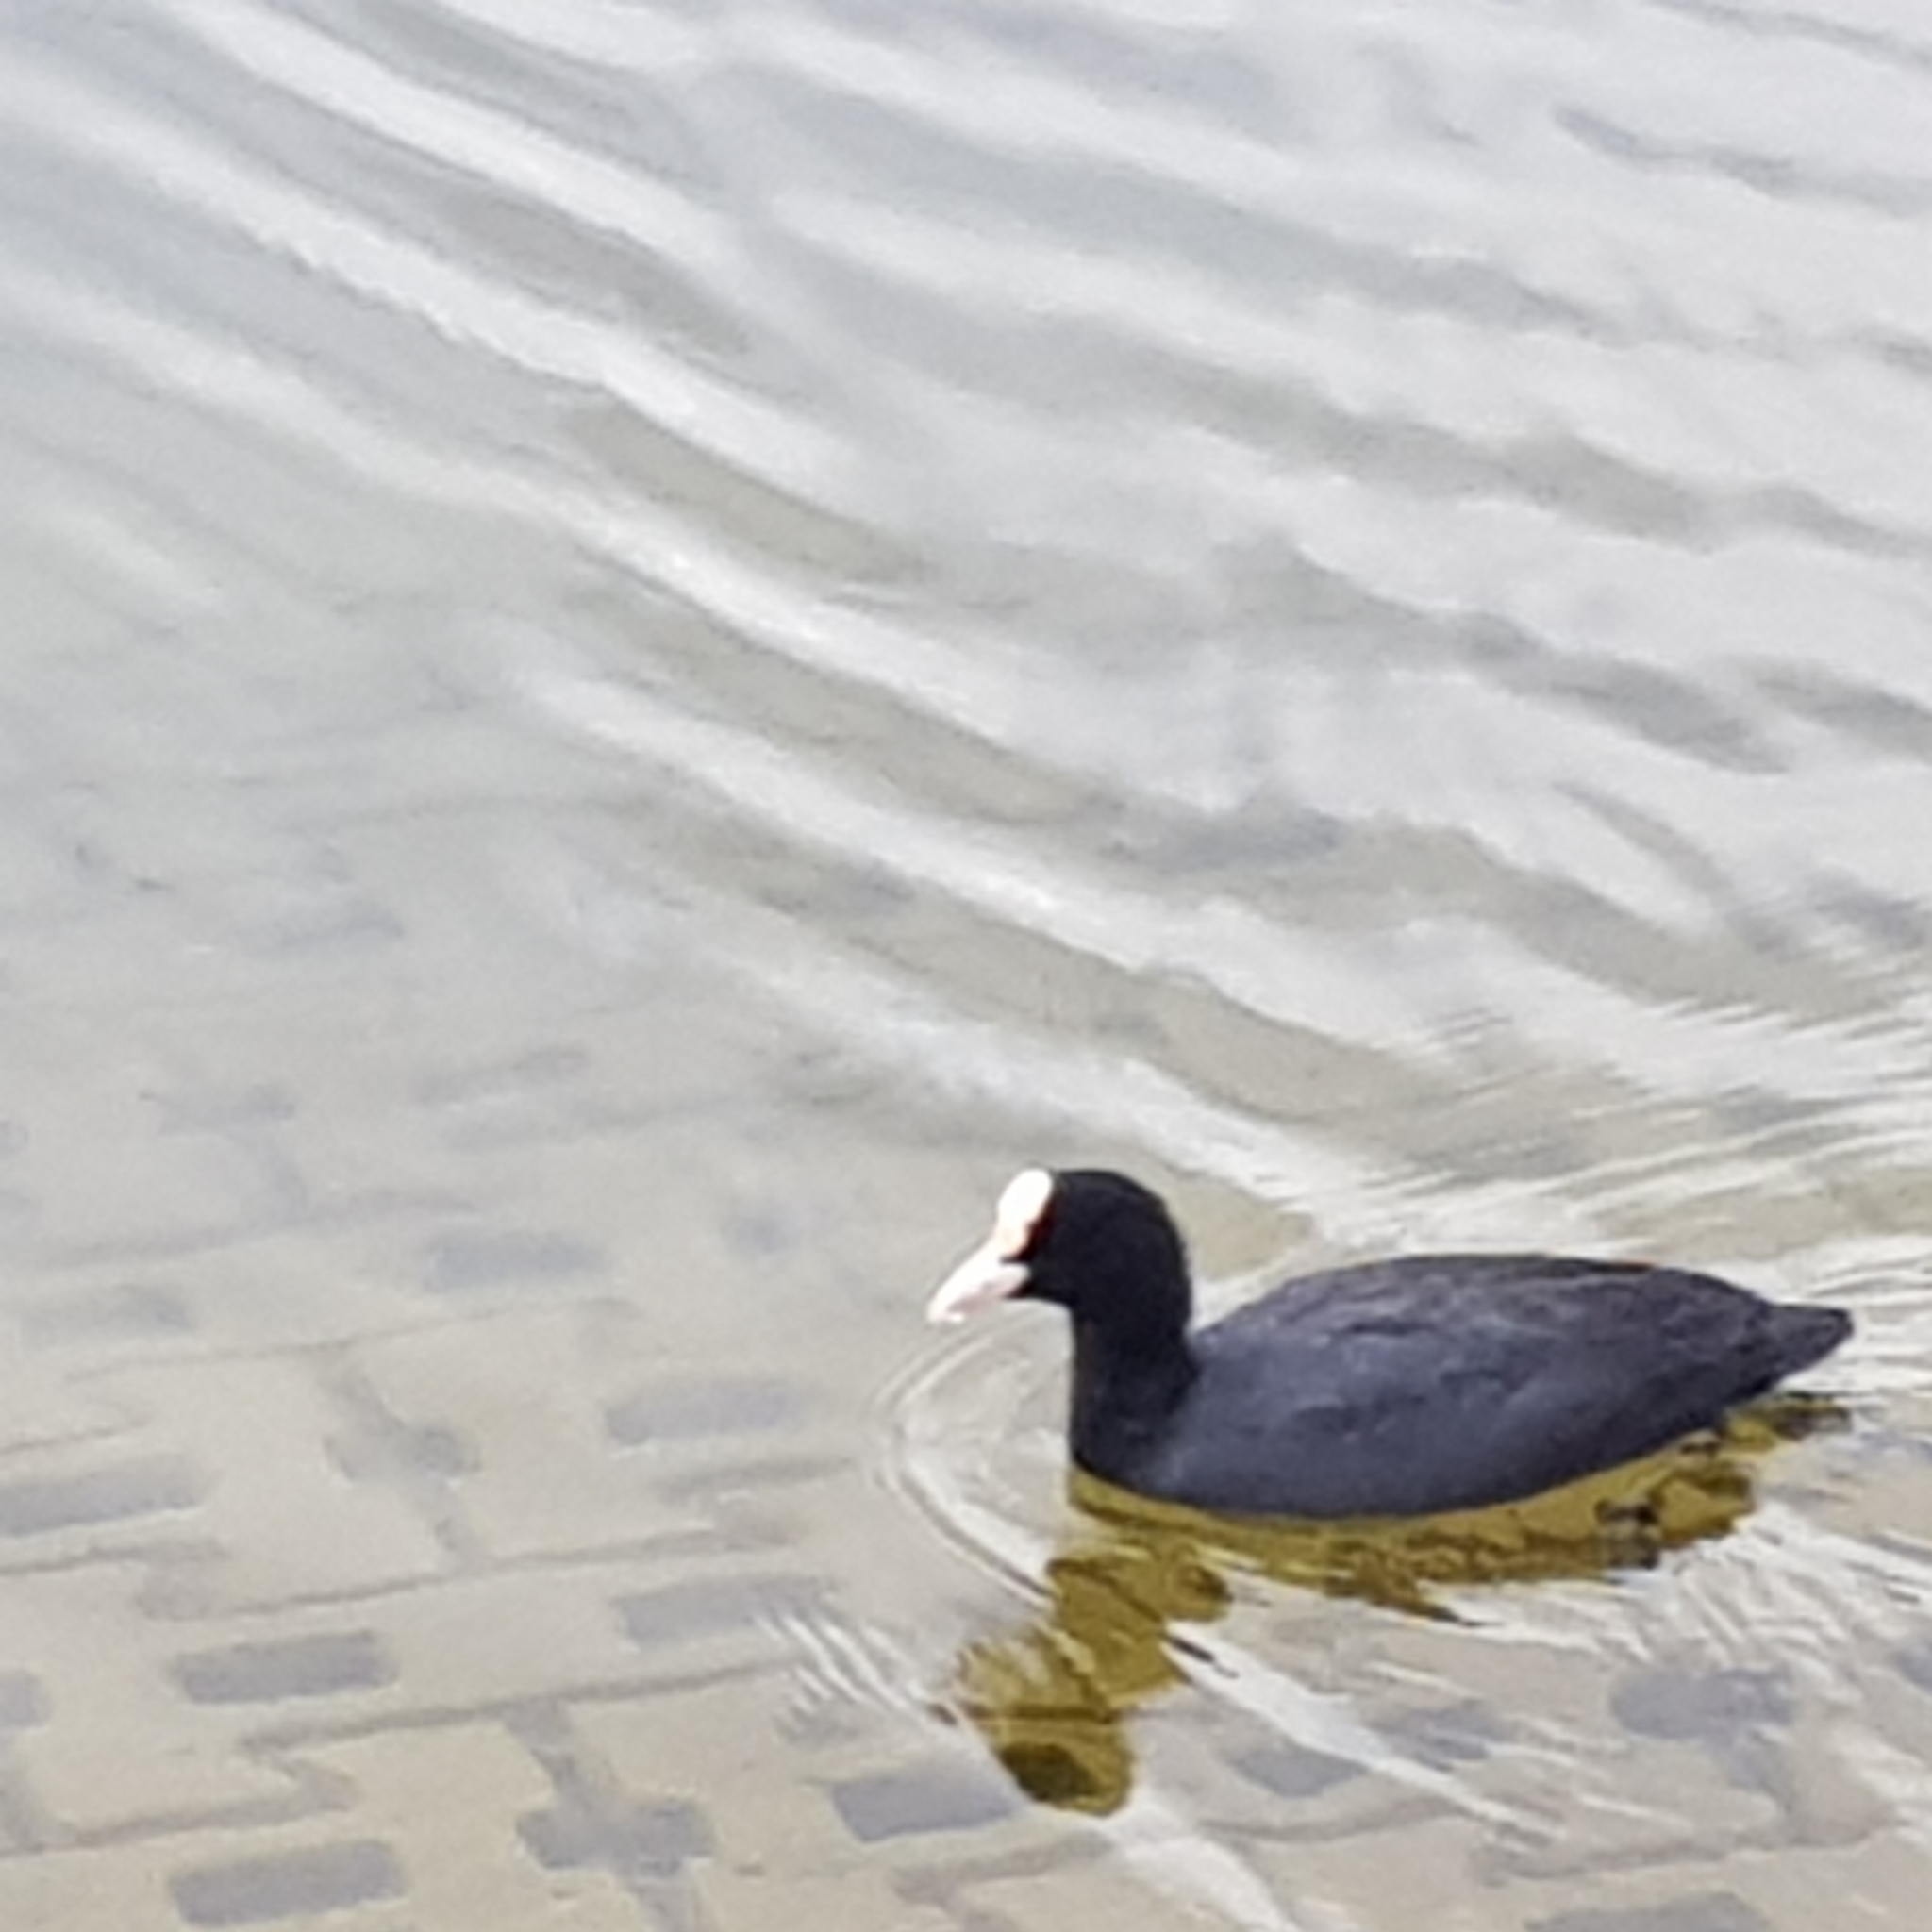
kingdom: Animalia
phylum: Chordata
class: Aves
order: Gruiformes
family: Rallidae
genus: Fulica
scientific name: Fulica atra
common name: Eurasian coot
